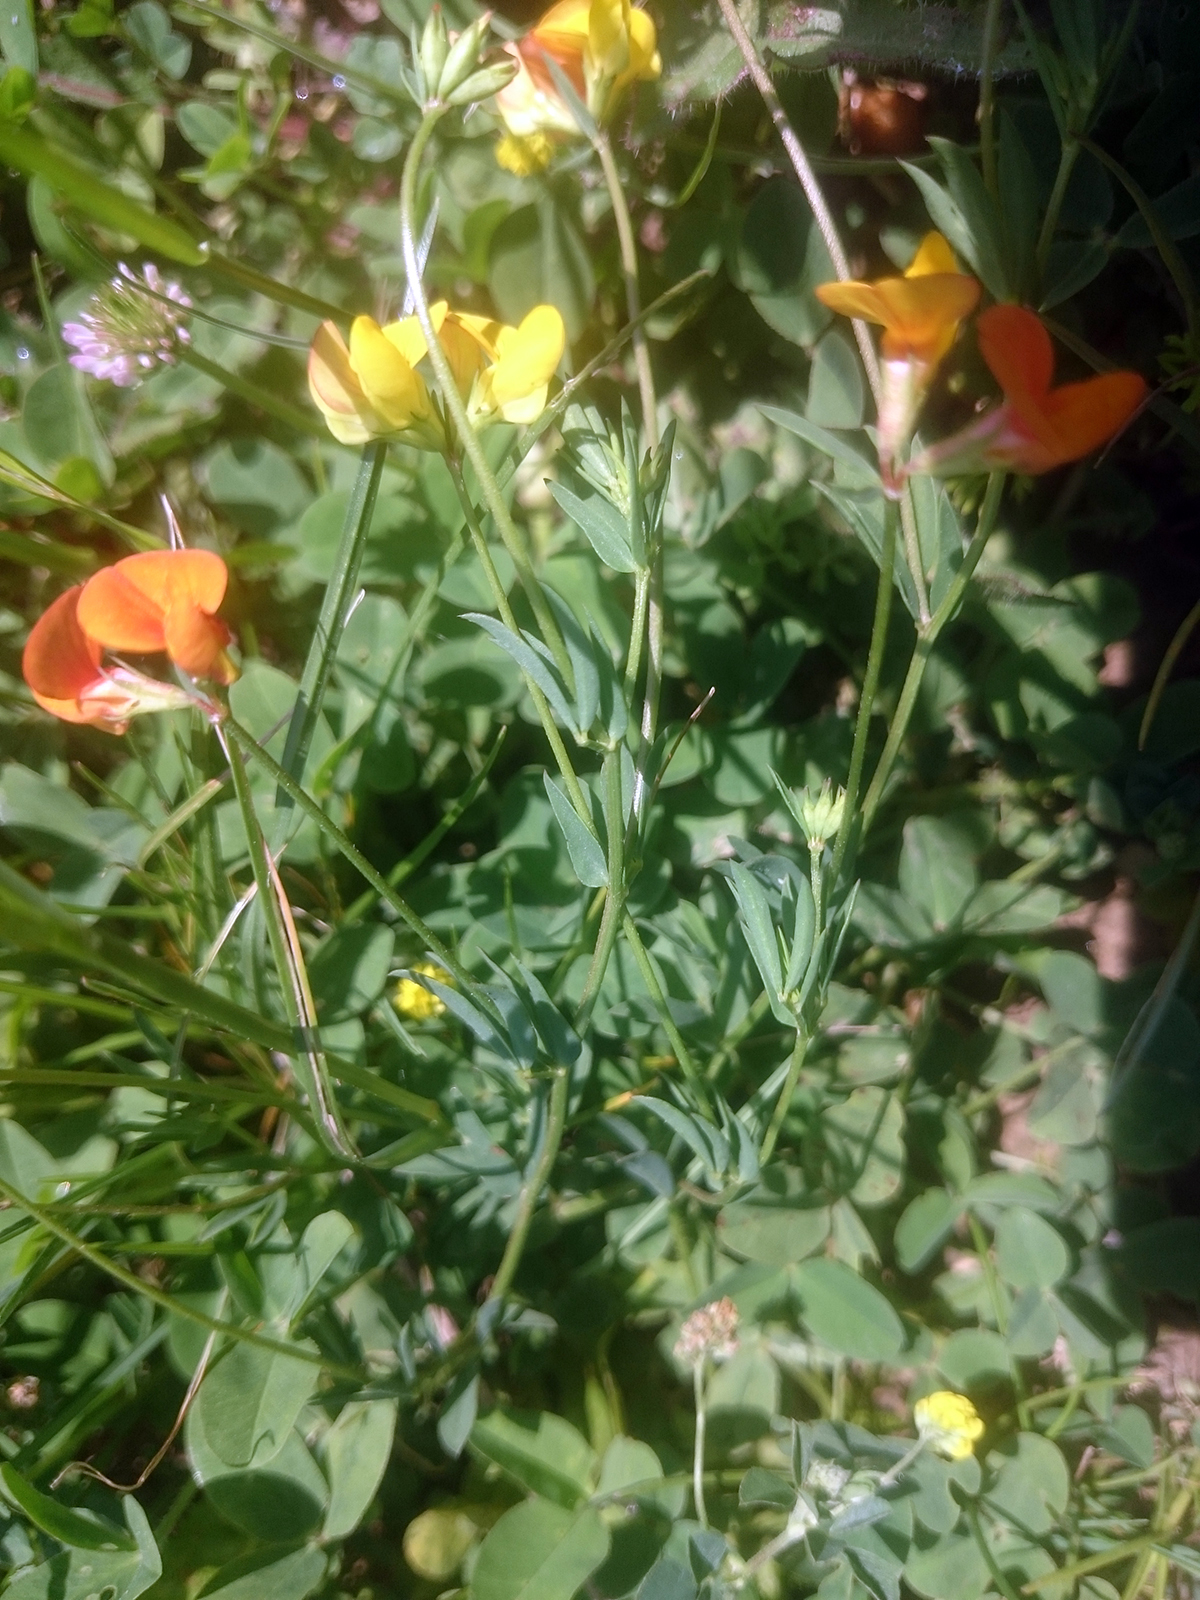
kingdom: Plantae
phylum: Tracheophyta
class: Magnoliopsida
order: Fabales
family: Fabaceae
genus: Lotus
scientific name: Lotus tenuis
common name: Narrow-leaved bird's-foot-trefoil
